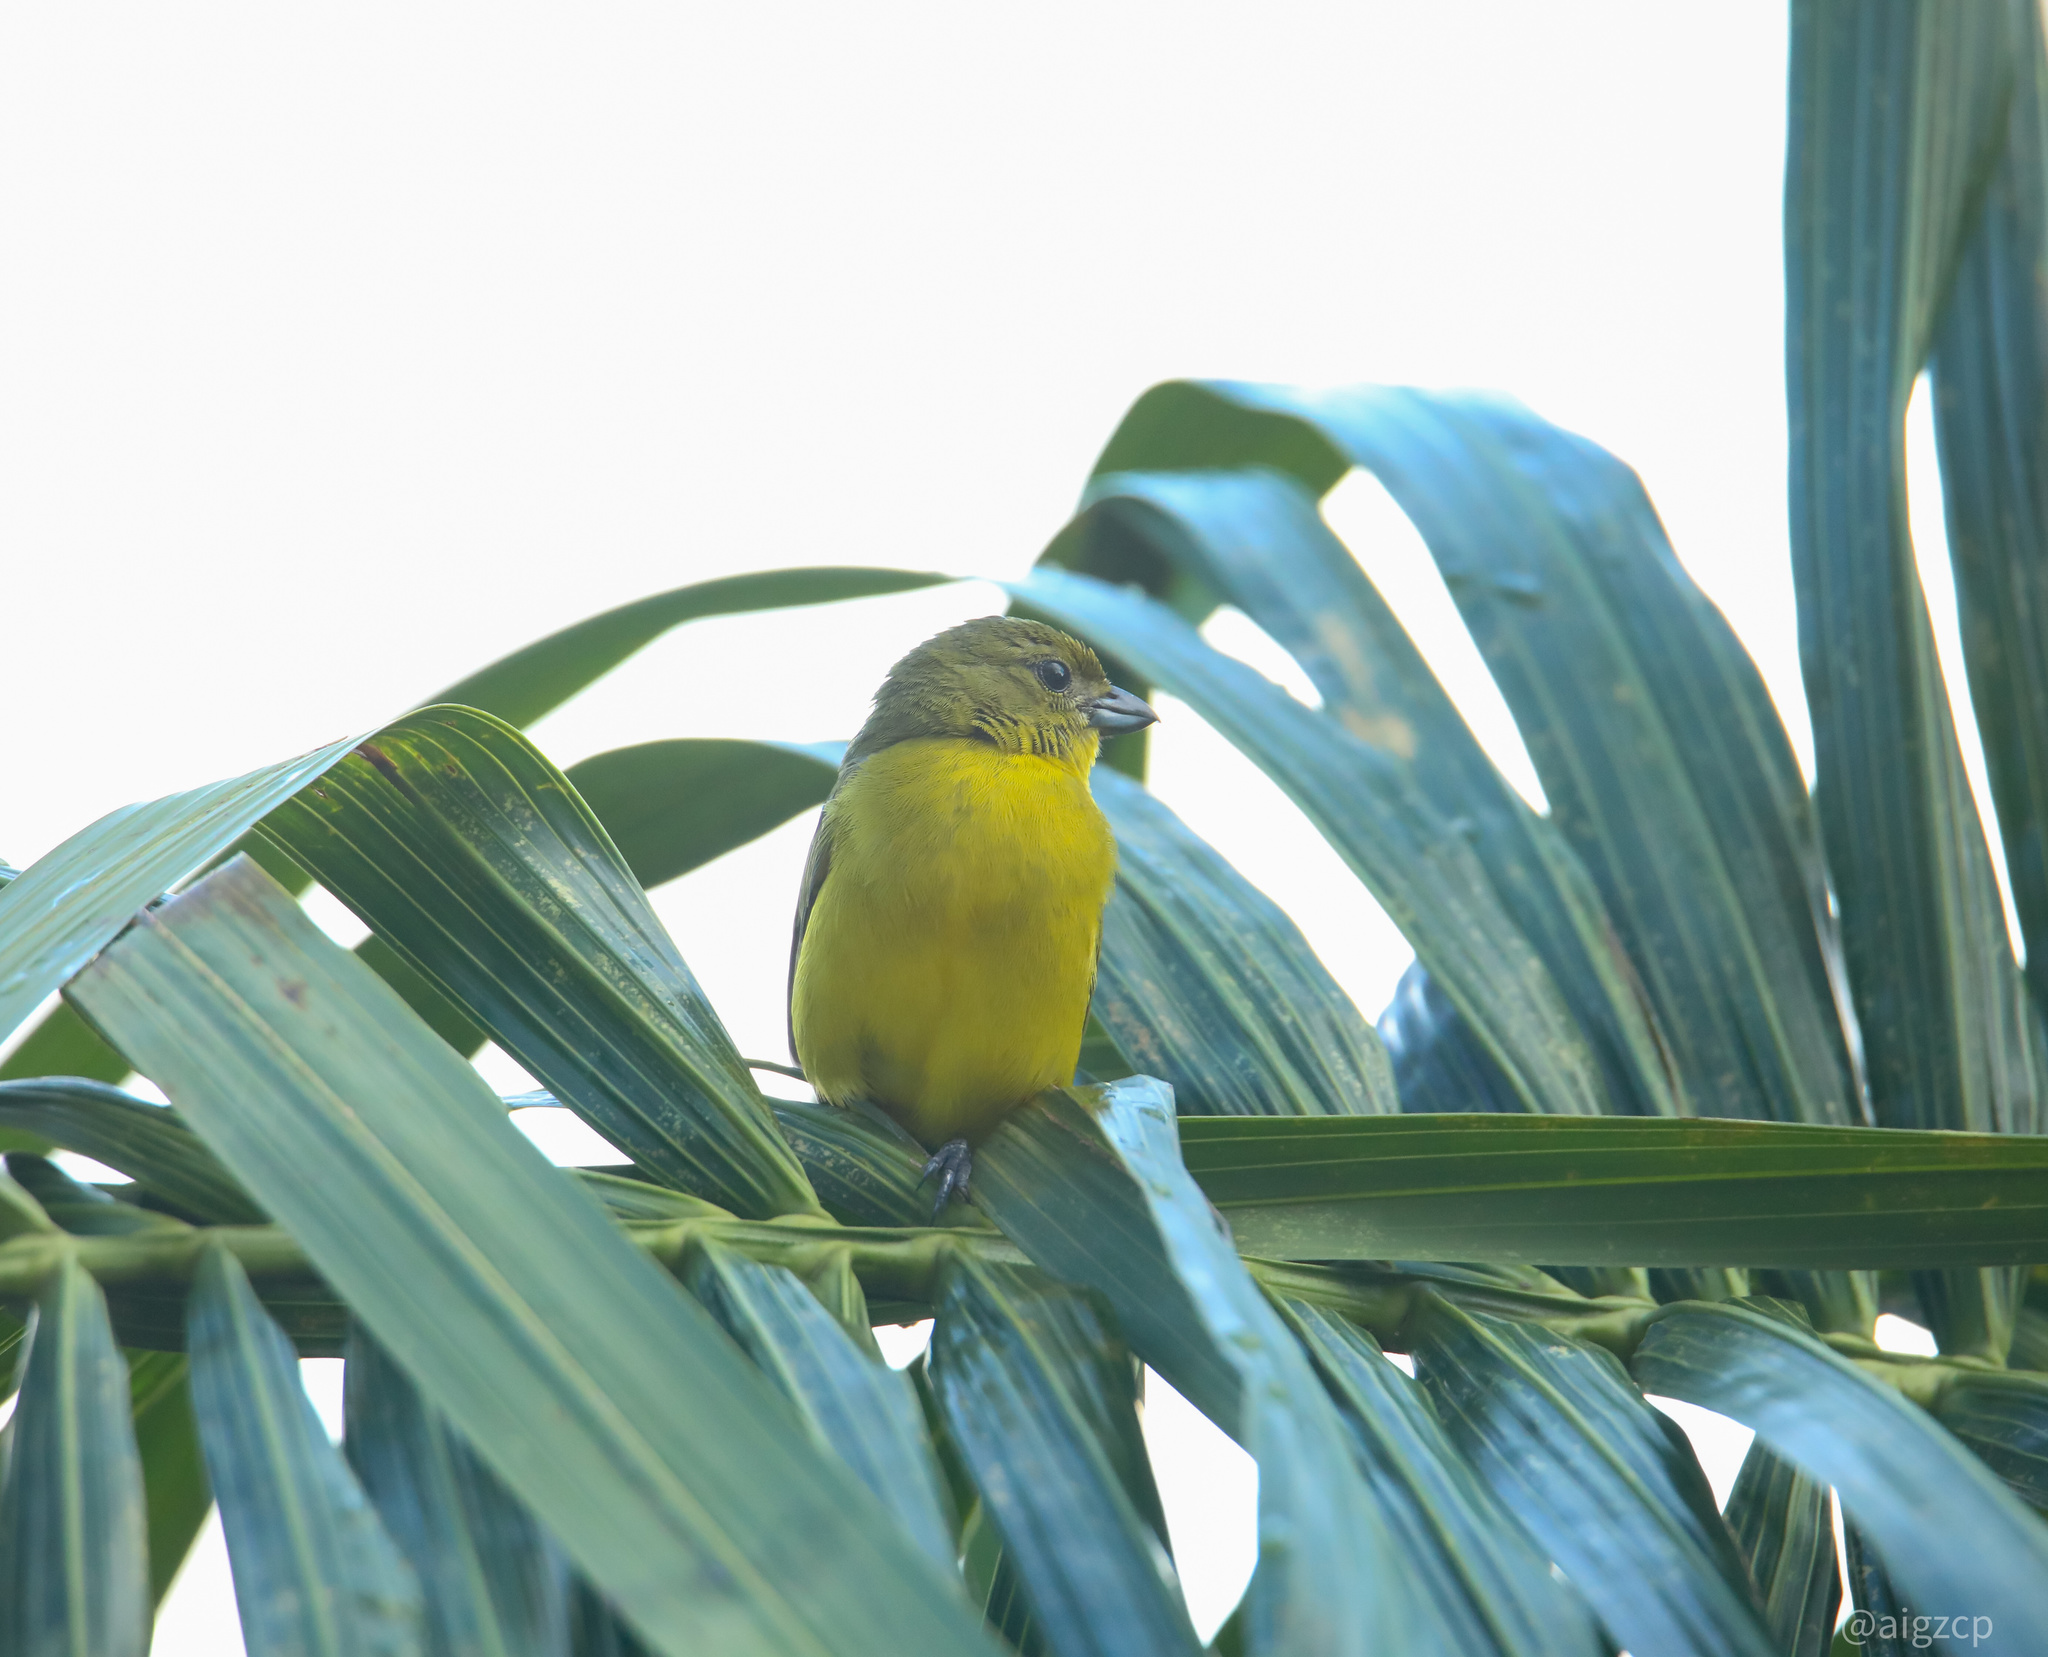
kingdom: Animalia
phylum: Chordata
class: Aves
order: Passeriformes
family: Fringillidae
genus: Euphonia
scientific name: Euphonia laniirostris
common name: Thick-billed euphonia
